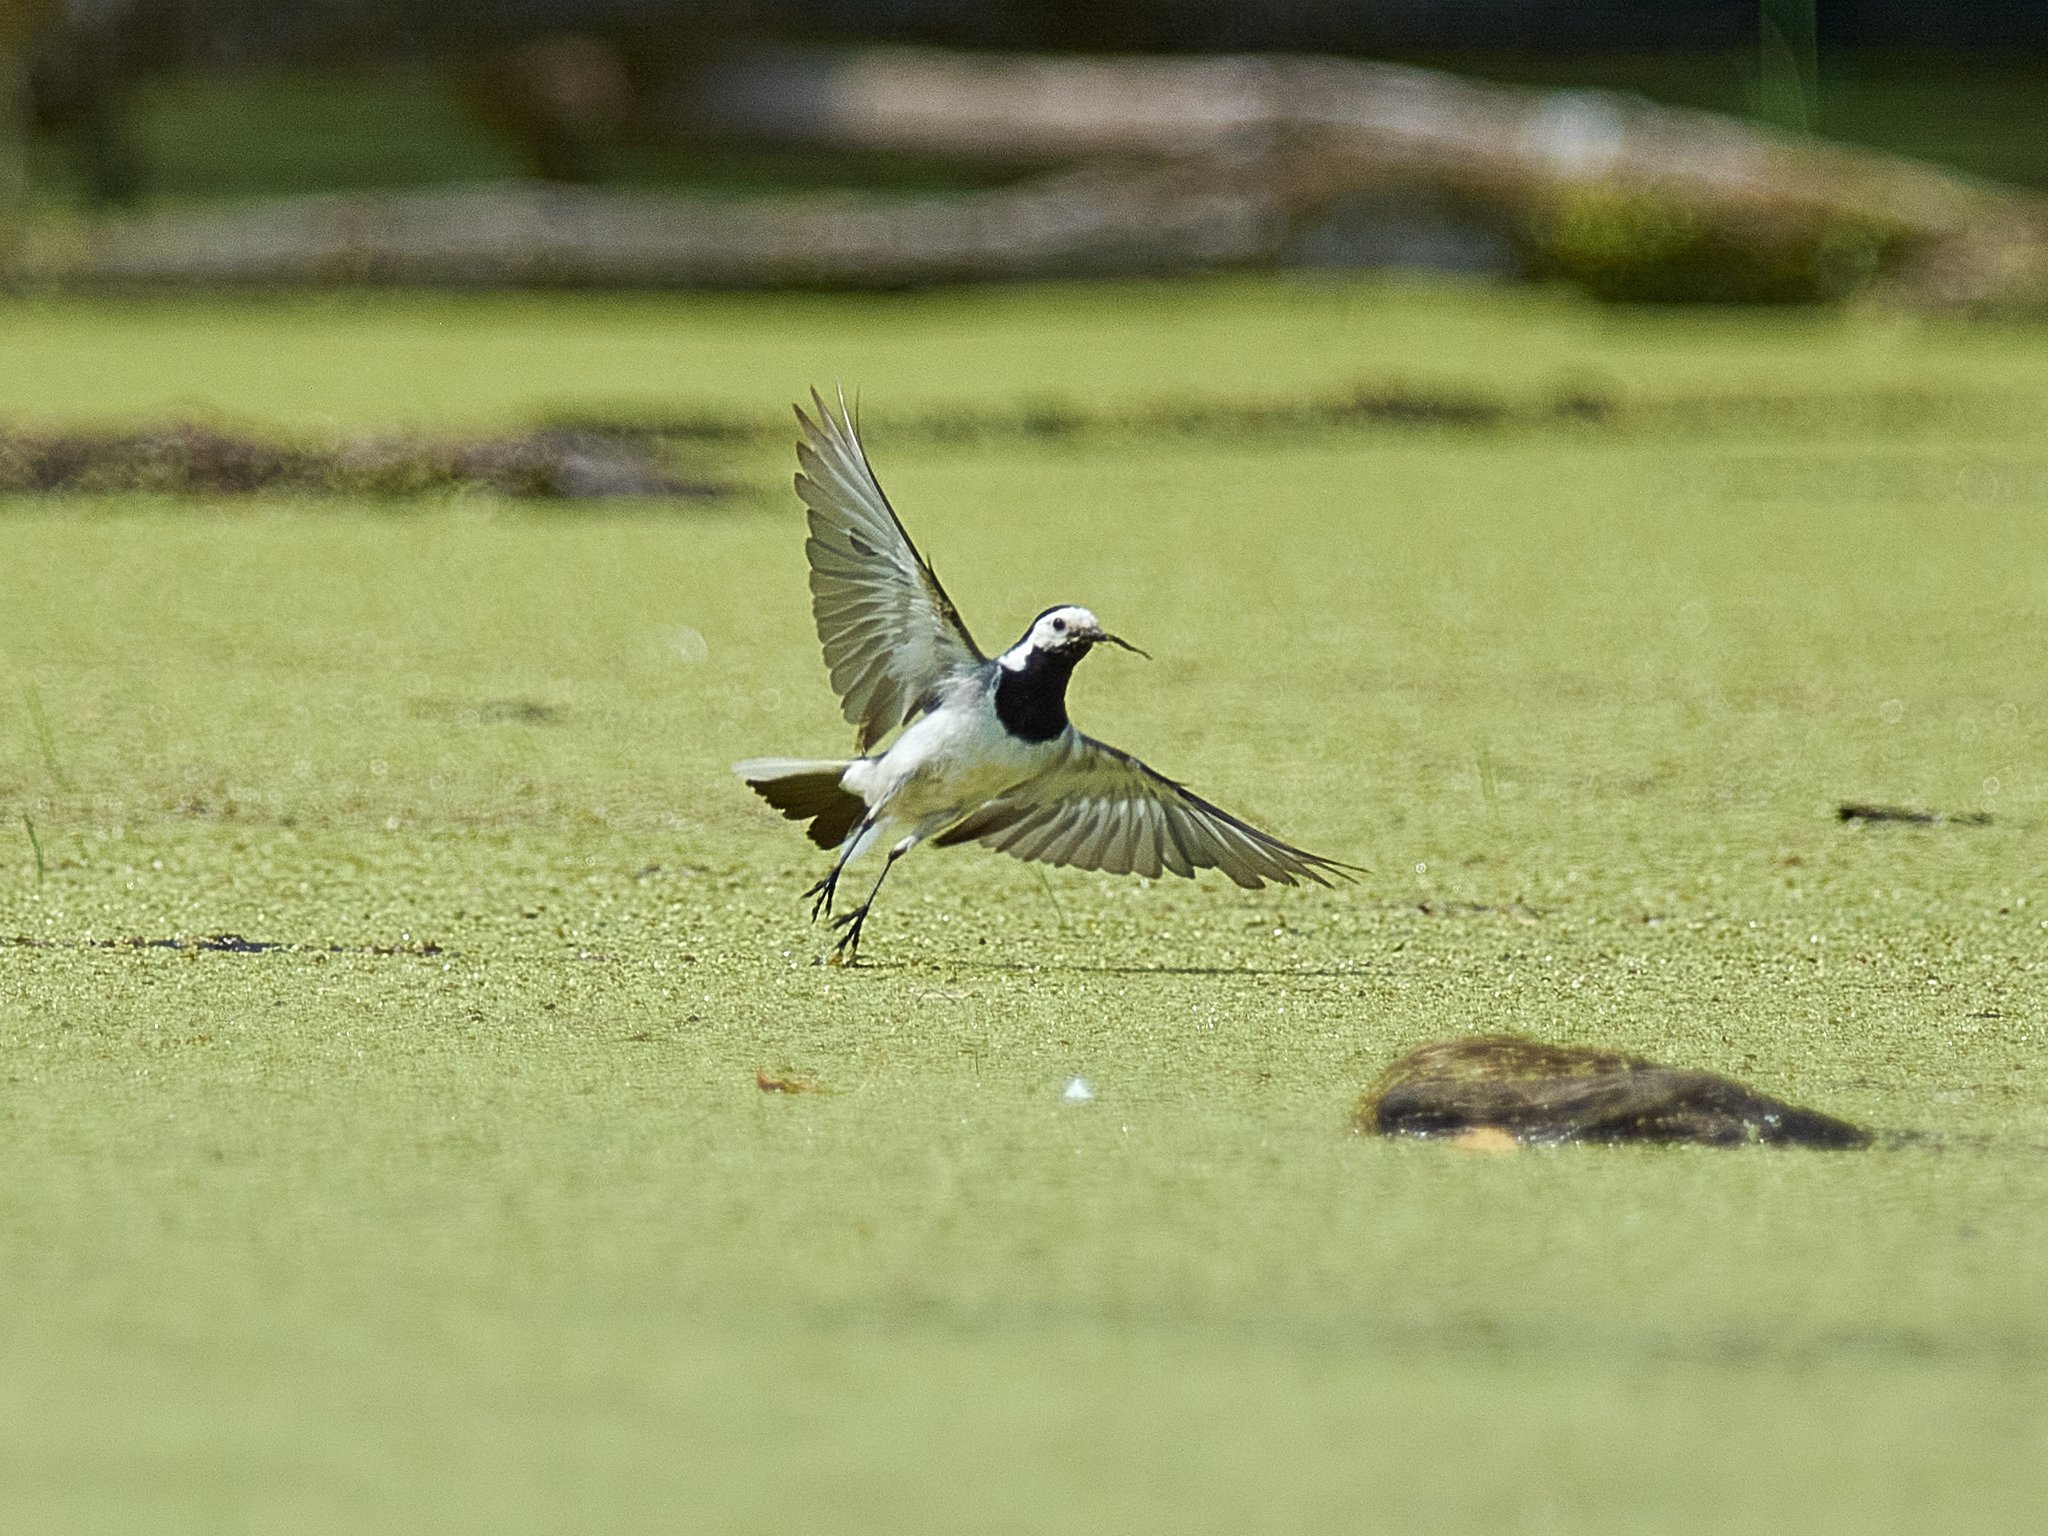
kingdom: Animalia
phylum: Chordata
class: Aves
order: Passeriformes
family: Motacillidae
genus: Motacilla
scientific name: Motacilla alba
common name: White wagtail
